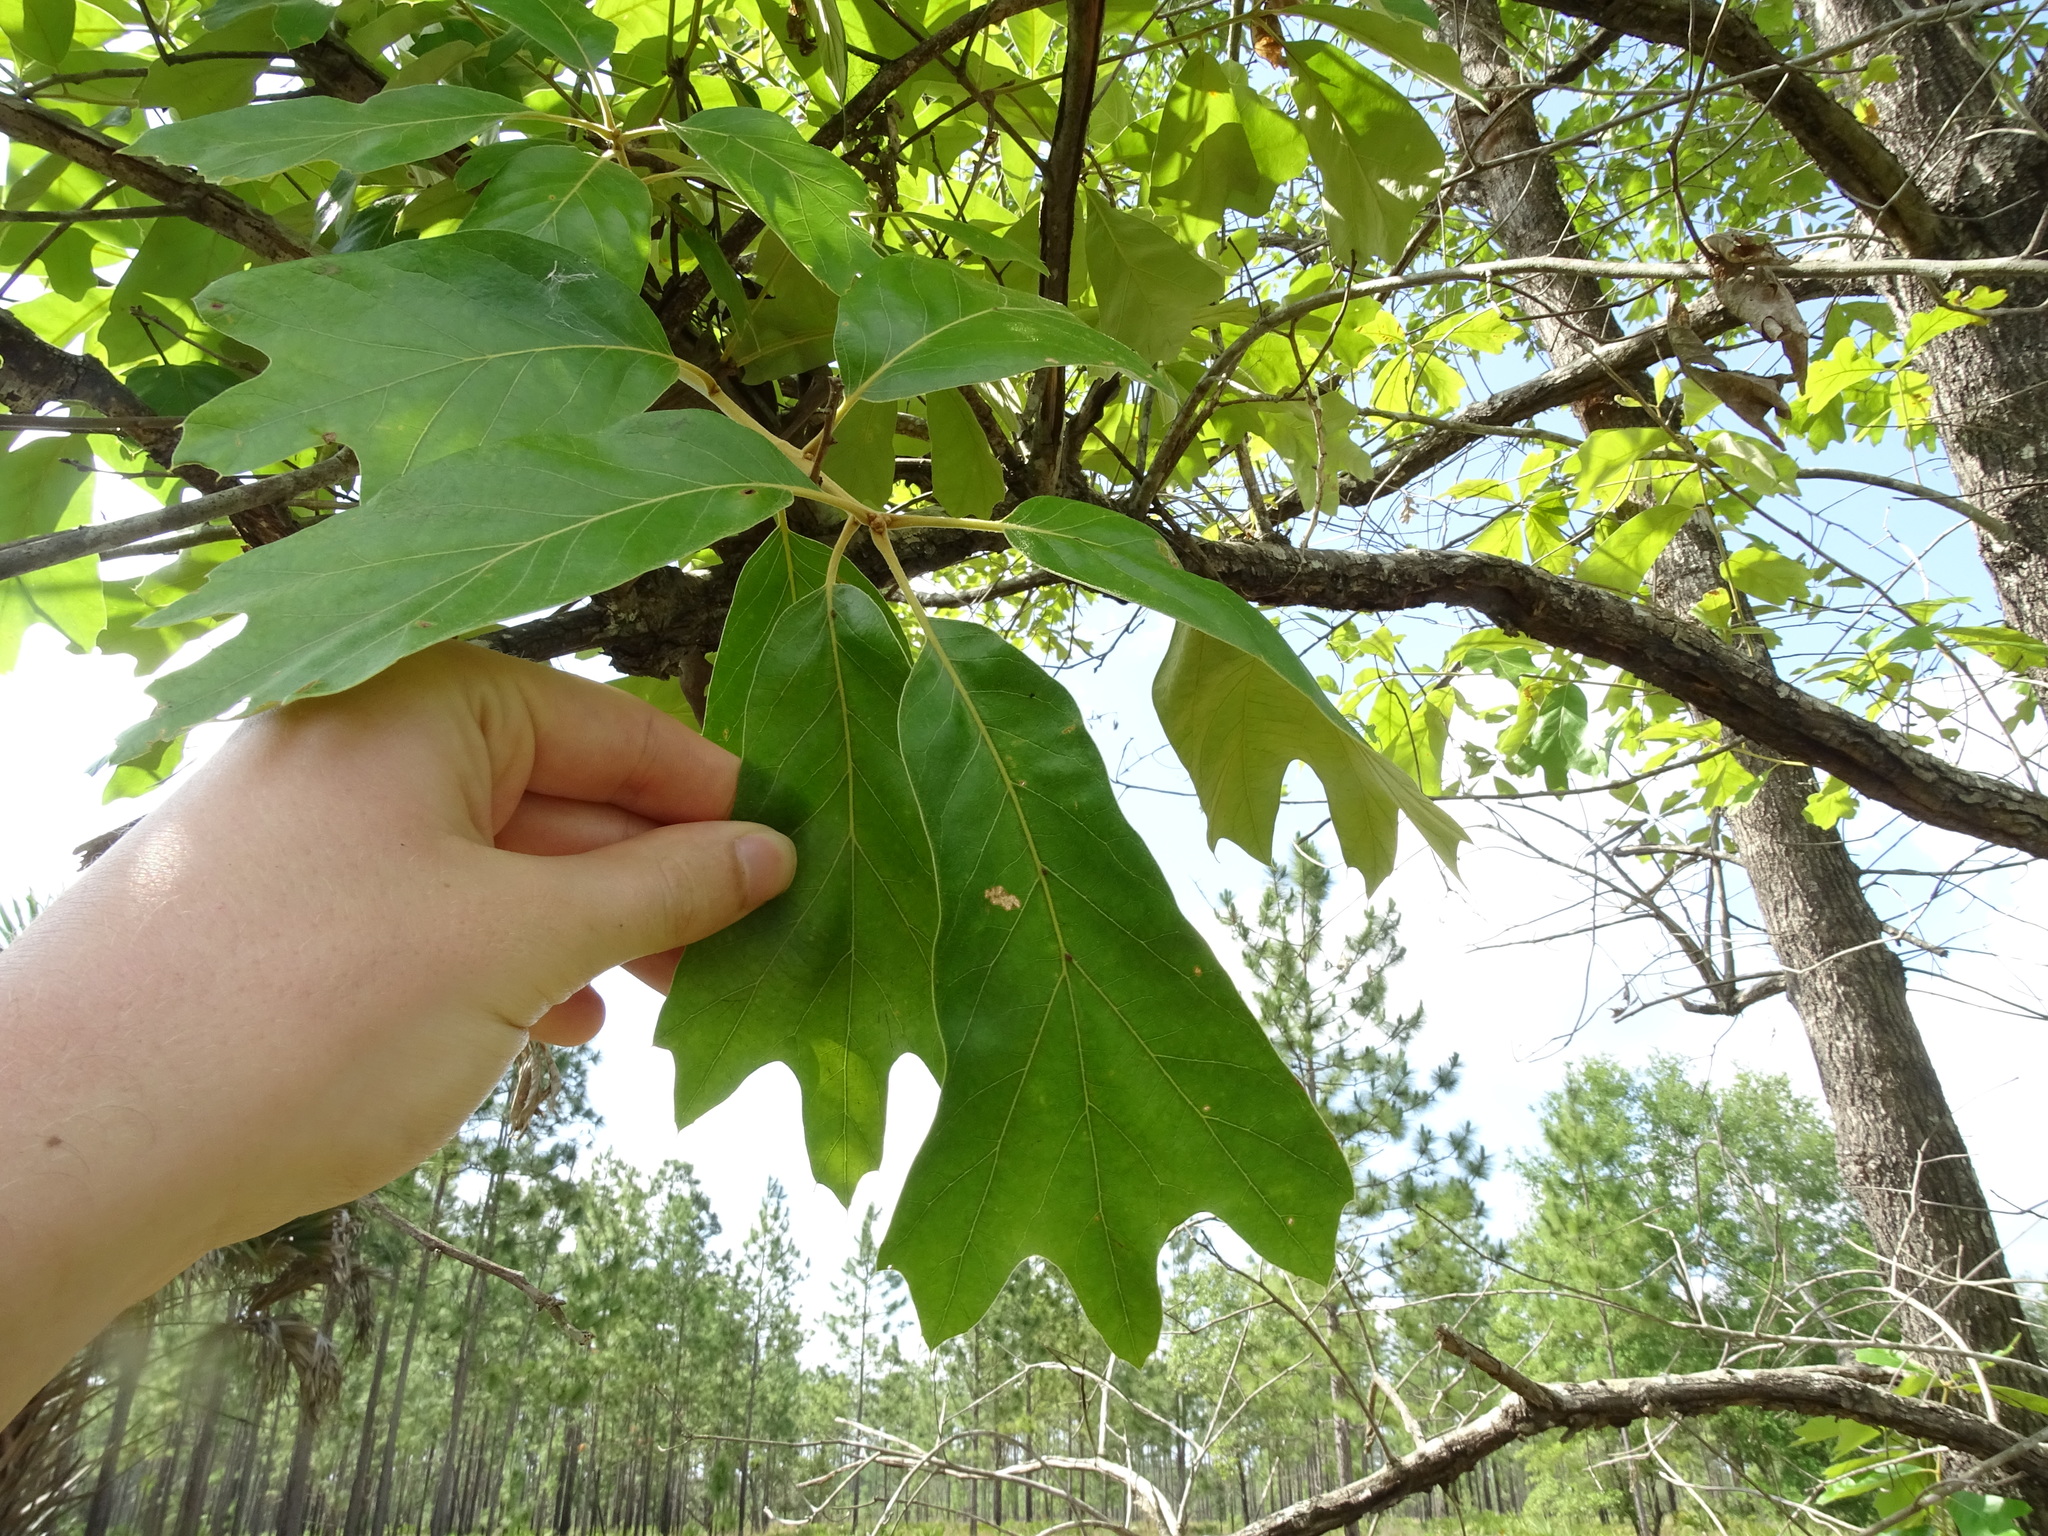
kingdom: Plantae
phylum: Tracheophyta
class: Magnoliopsida
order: Fagales
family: Fagaceae
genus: Quercus
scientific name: Quercus falcata
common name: Southern red oak
